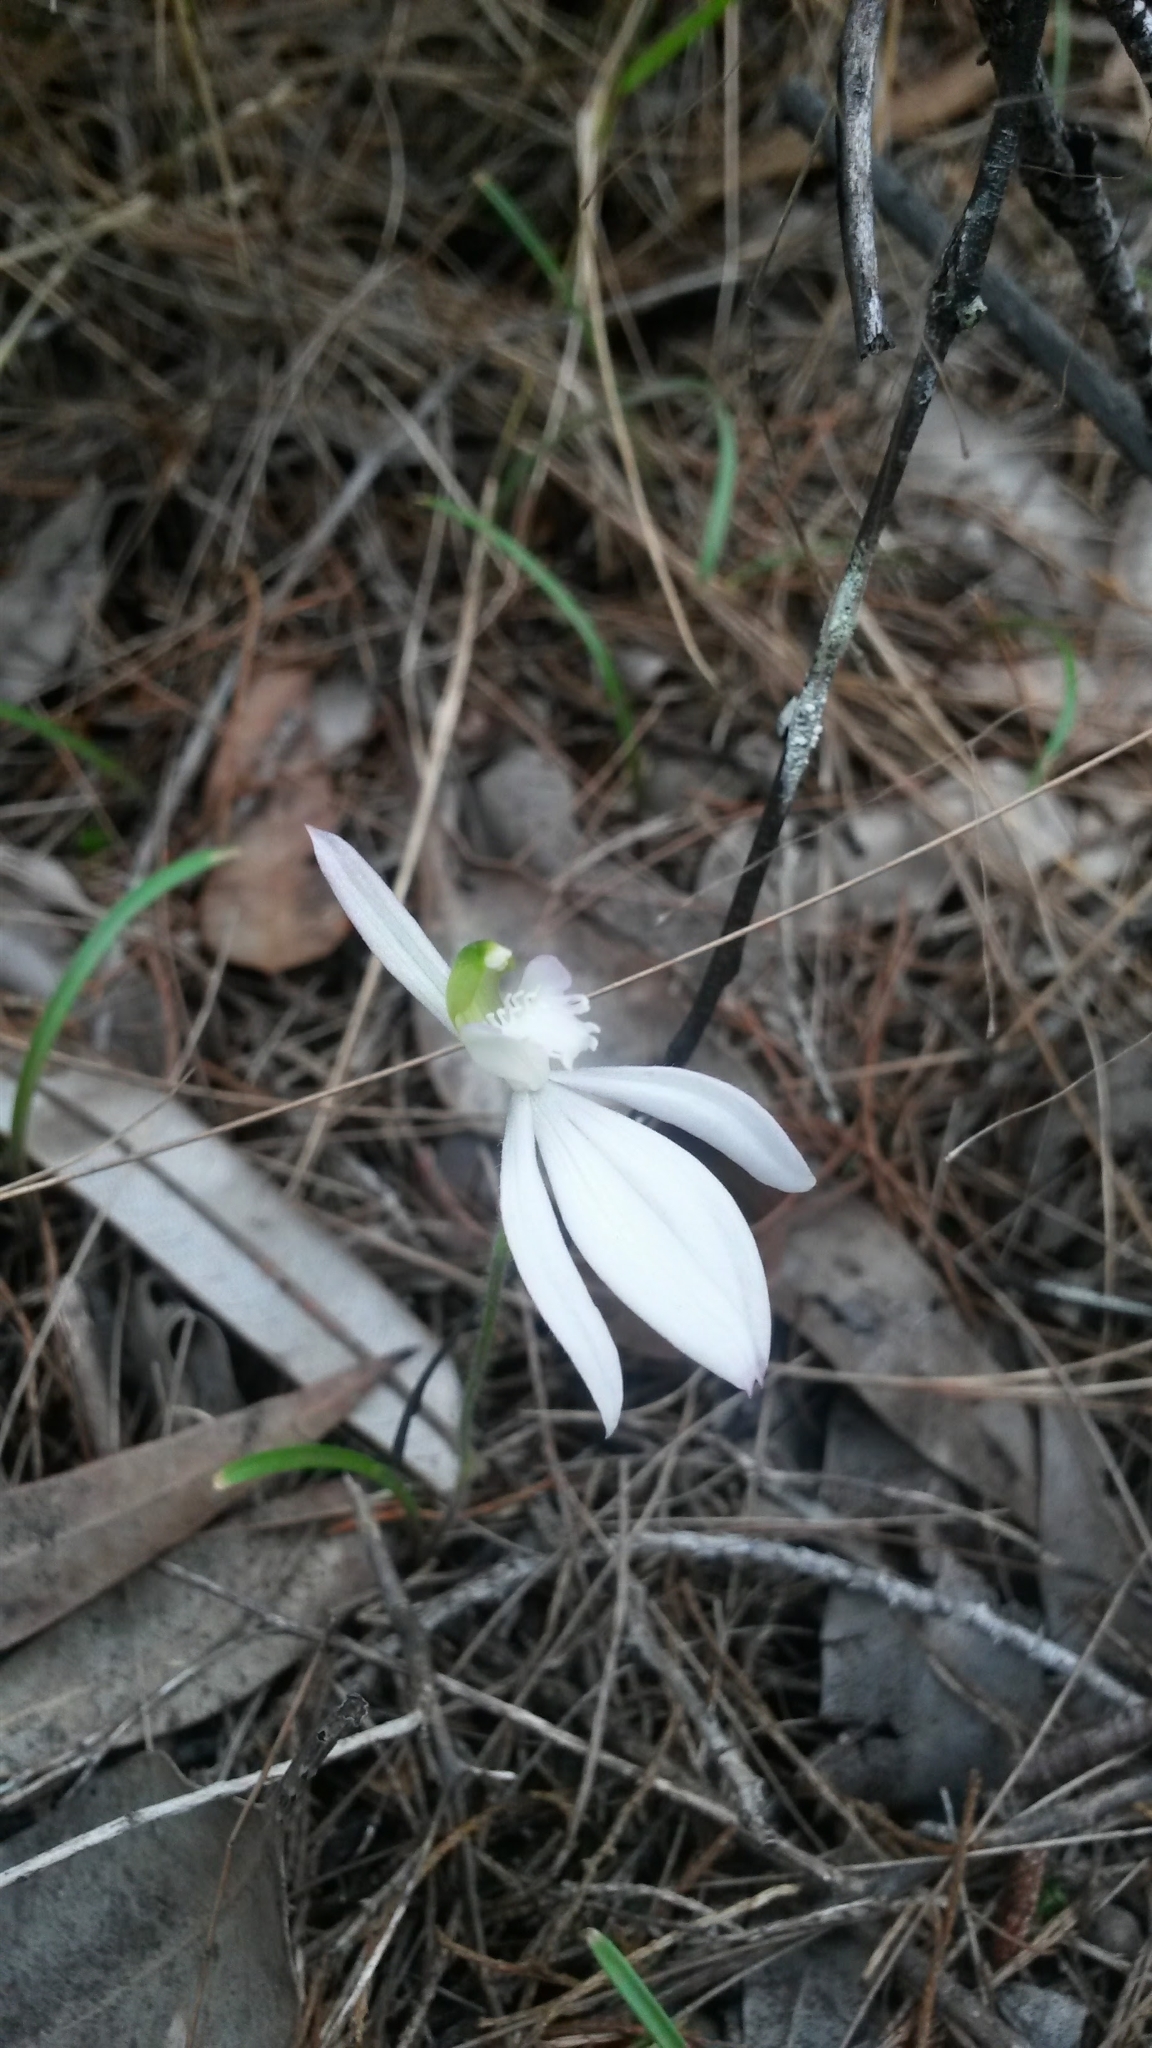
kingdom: Plantae
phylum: Tracheophyta
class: Liliopsida
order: Asparagales
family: Orchidaceae
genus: Caladenia
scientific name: Caladenia picta
